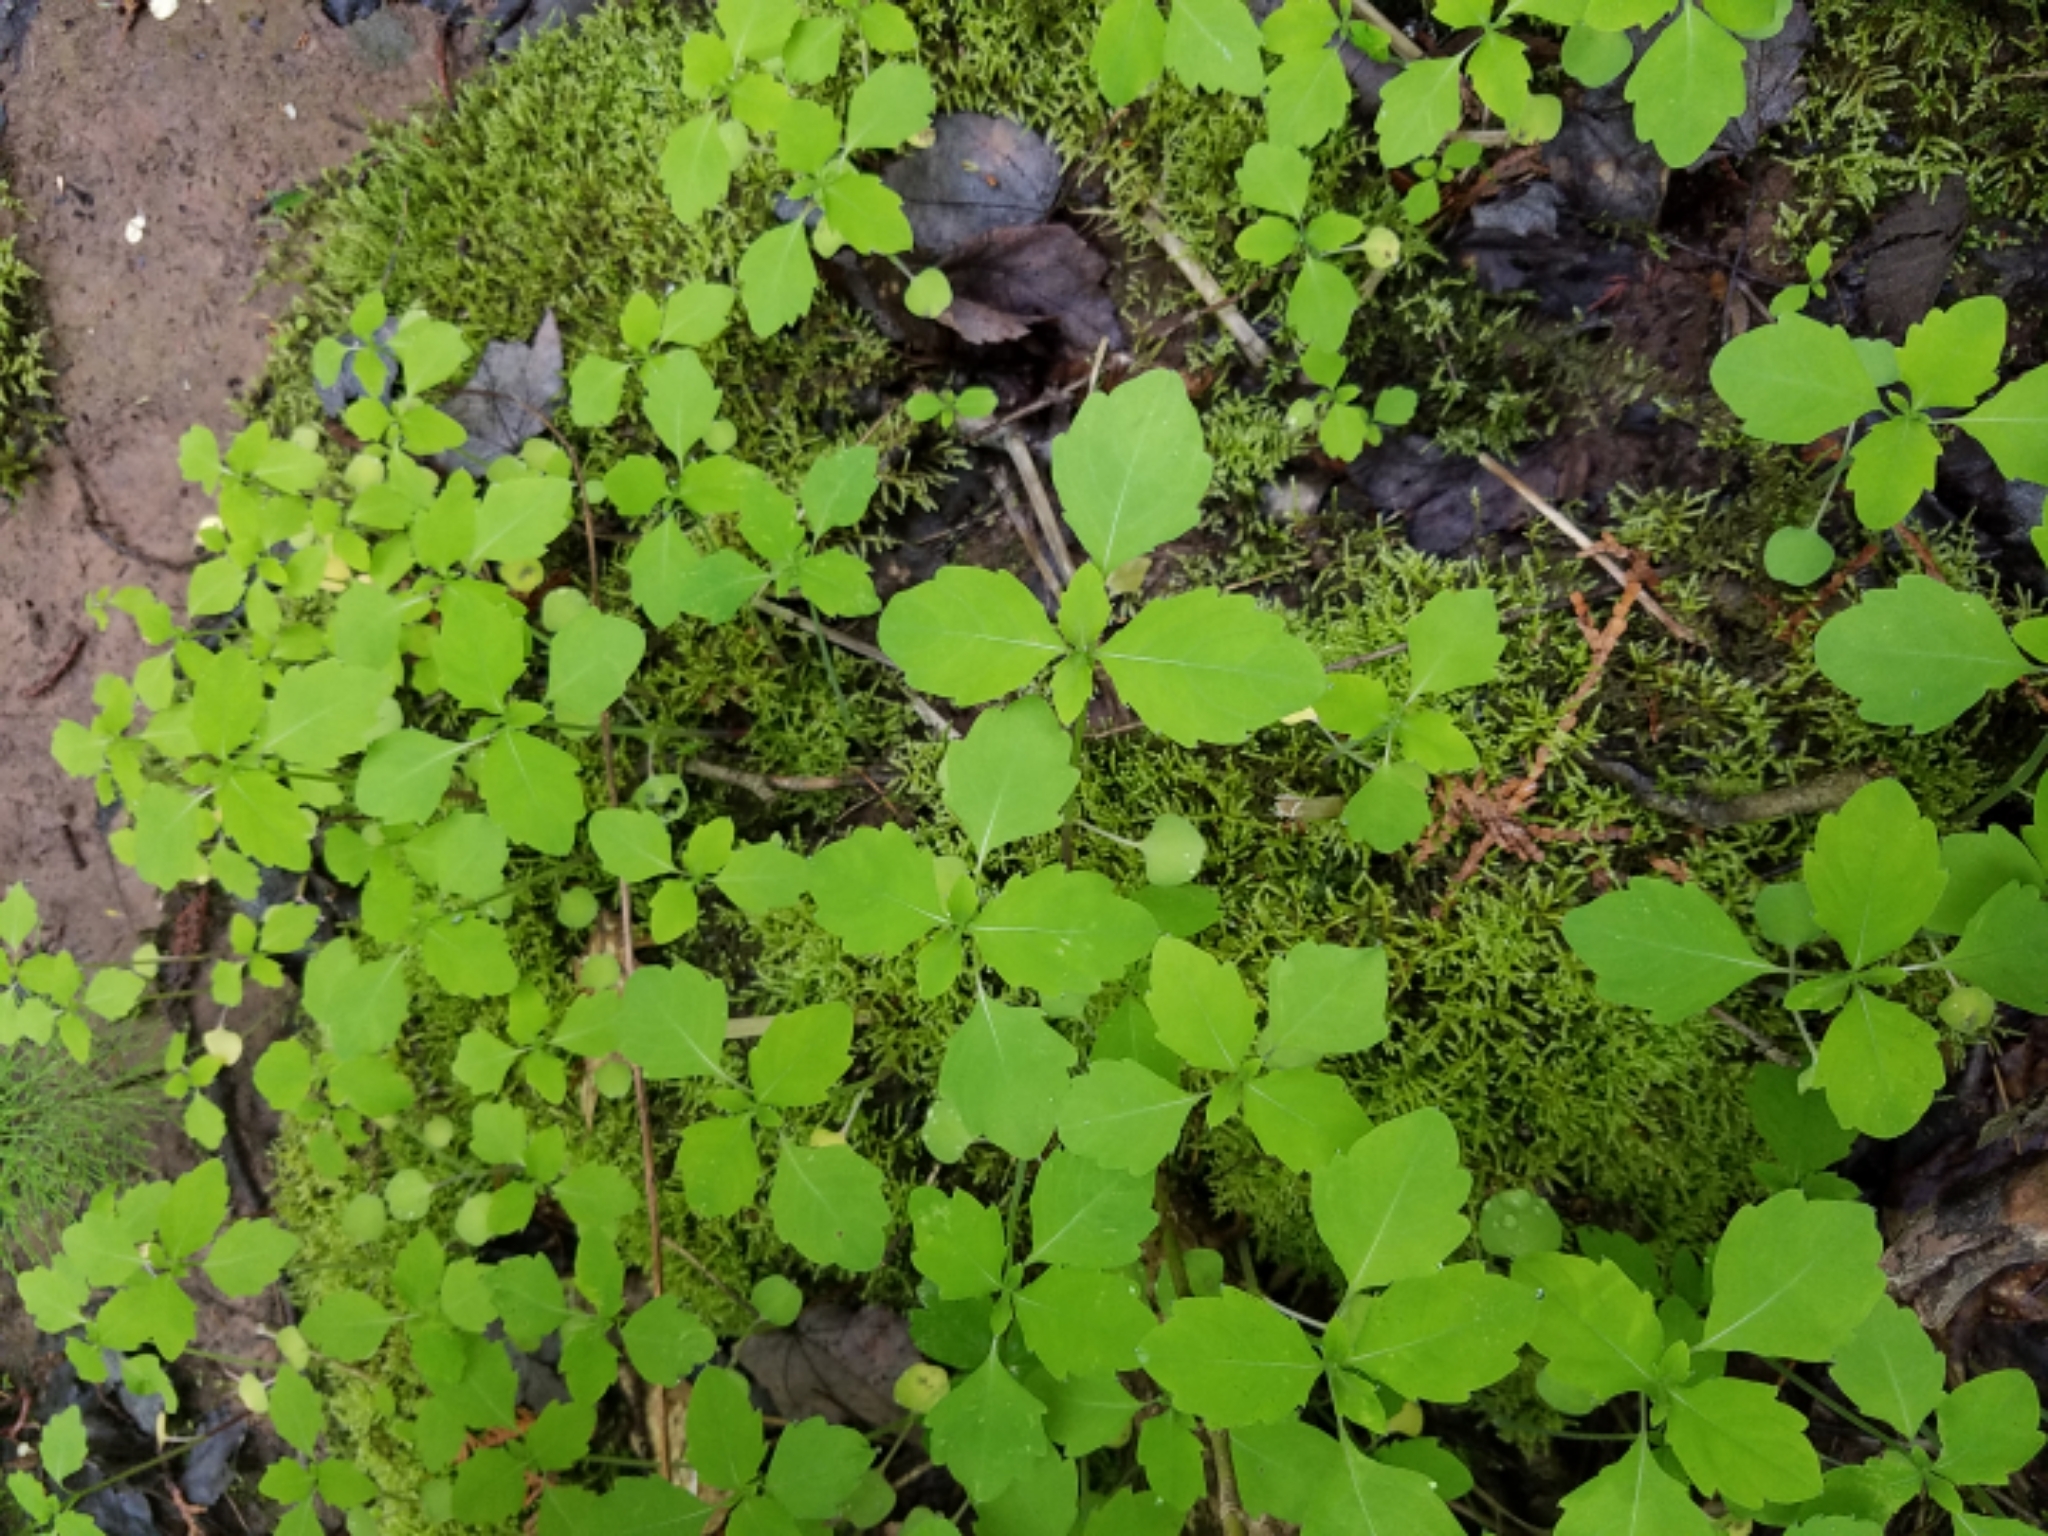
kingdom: Plantae
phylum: Tracheophyta
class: Magnoliopsida
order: Ericales
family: Balsaminaceae
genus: Impatiens
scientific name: Impatiens capensis
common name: Orange balsam
